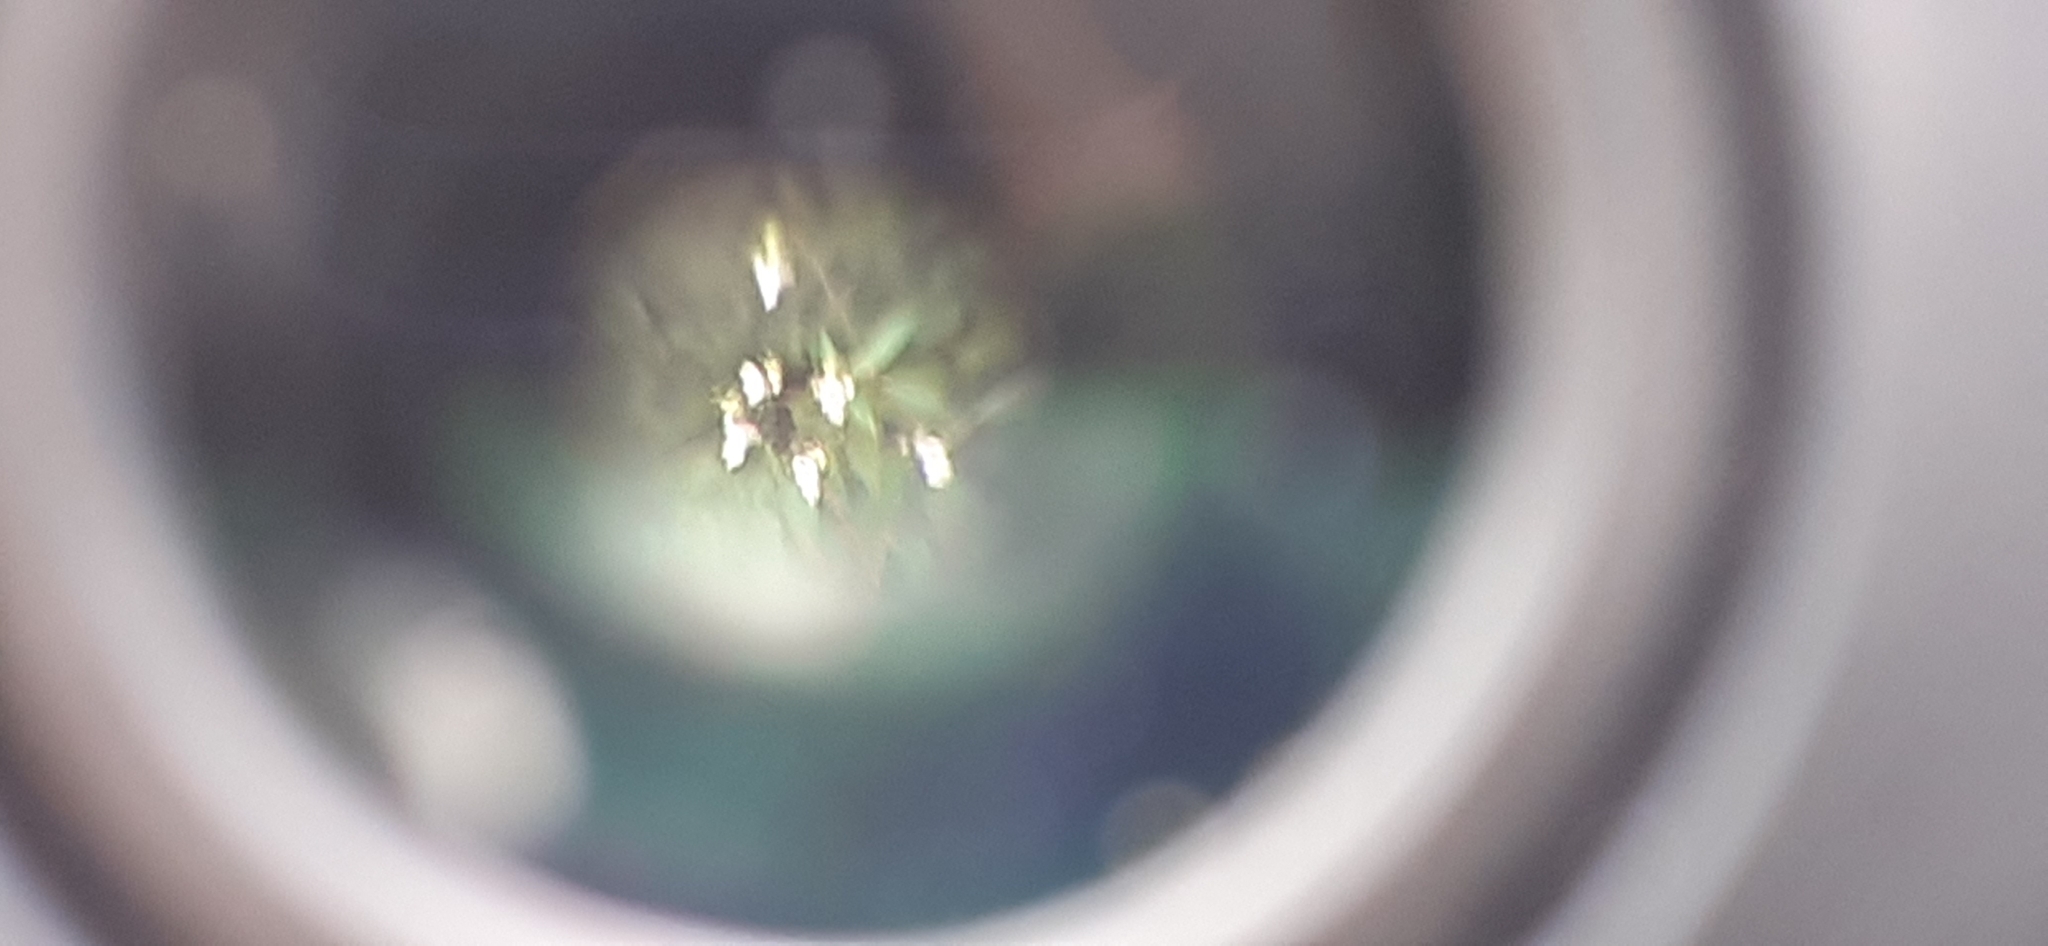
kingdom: Plantae
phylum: Tracheophyta
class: Magnoliopsida
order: Ericales
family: Balsaminaceae
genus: Impatiens
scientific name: Impatiens glandulifera
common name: Himalayan balsam
